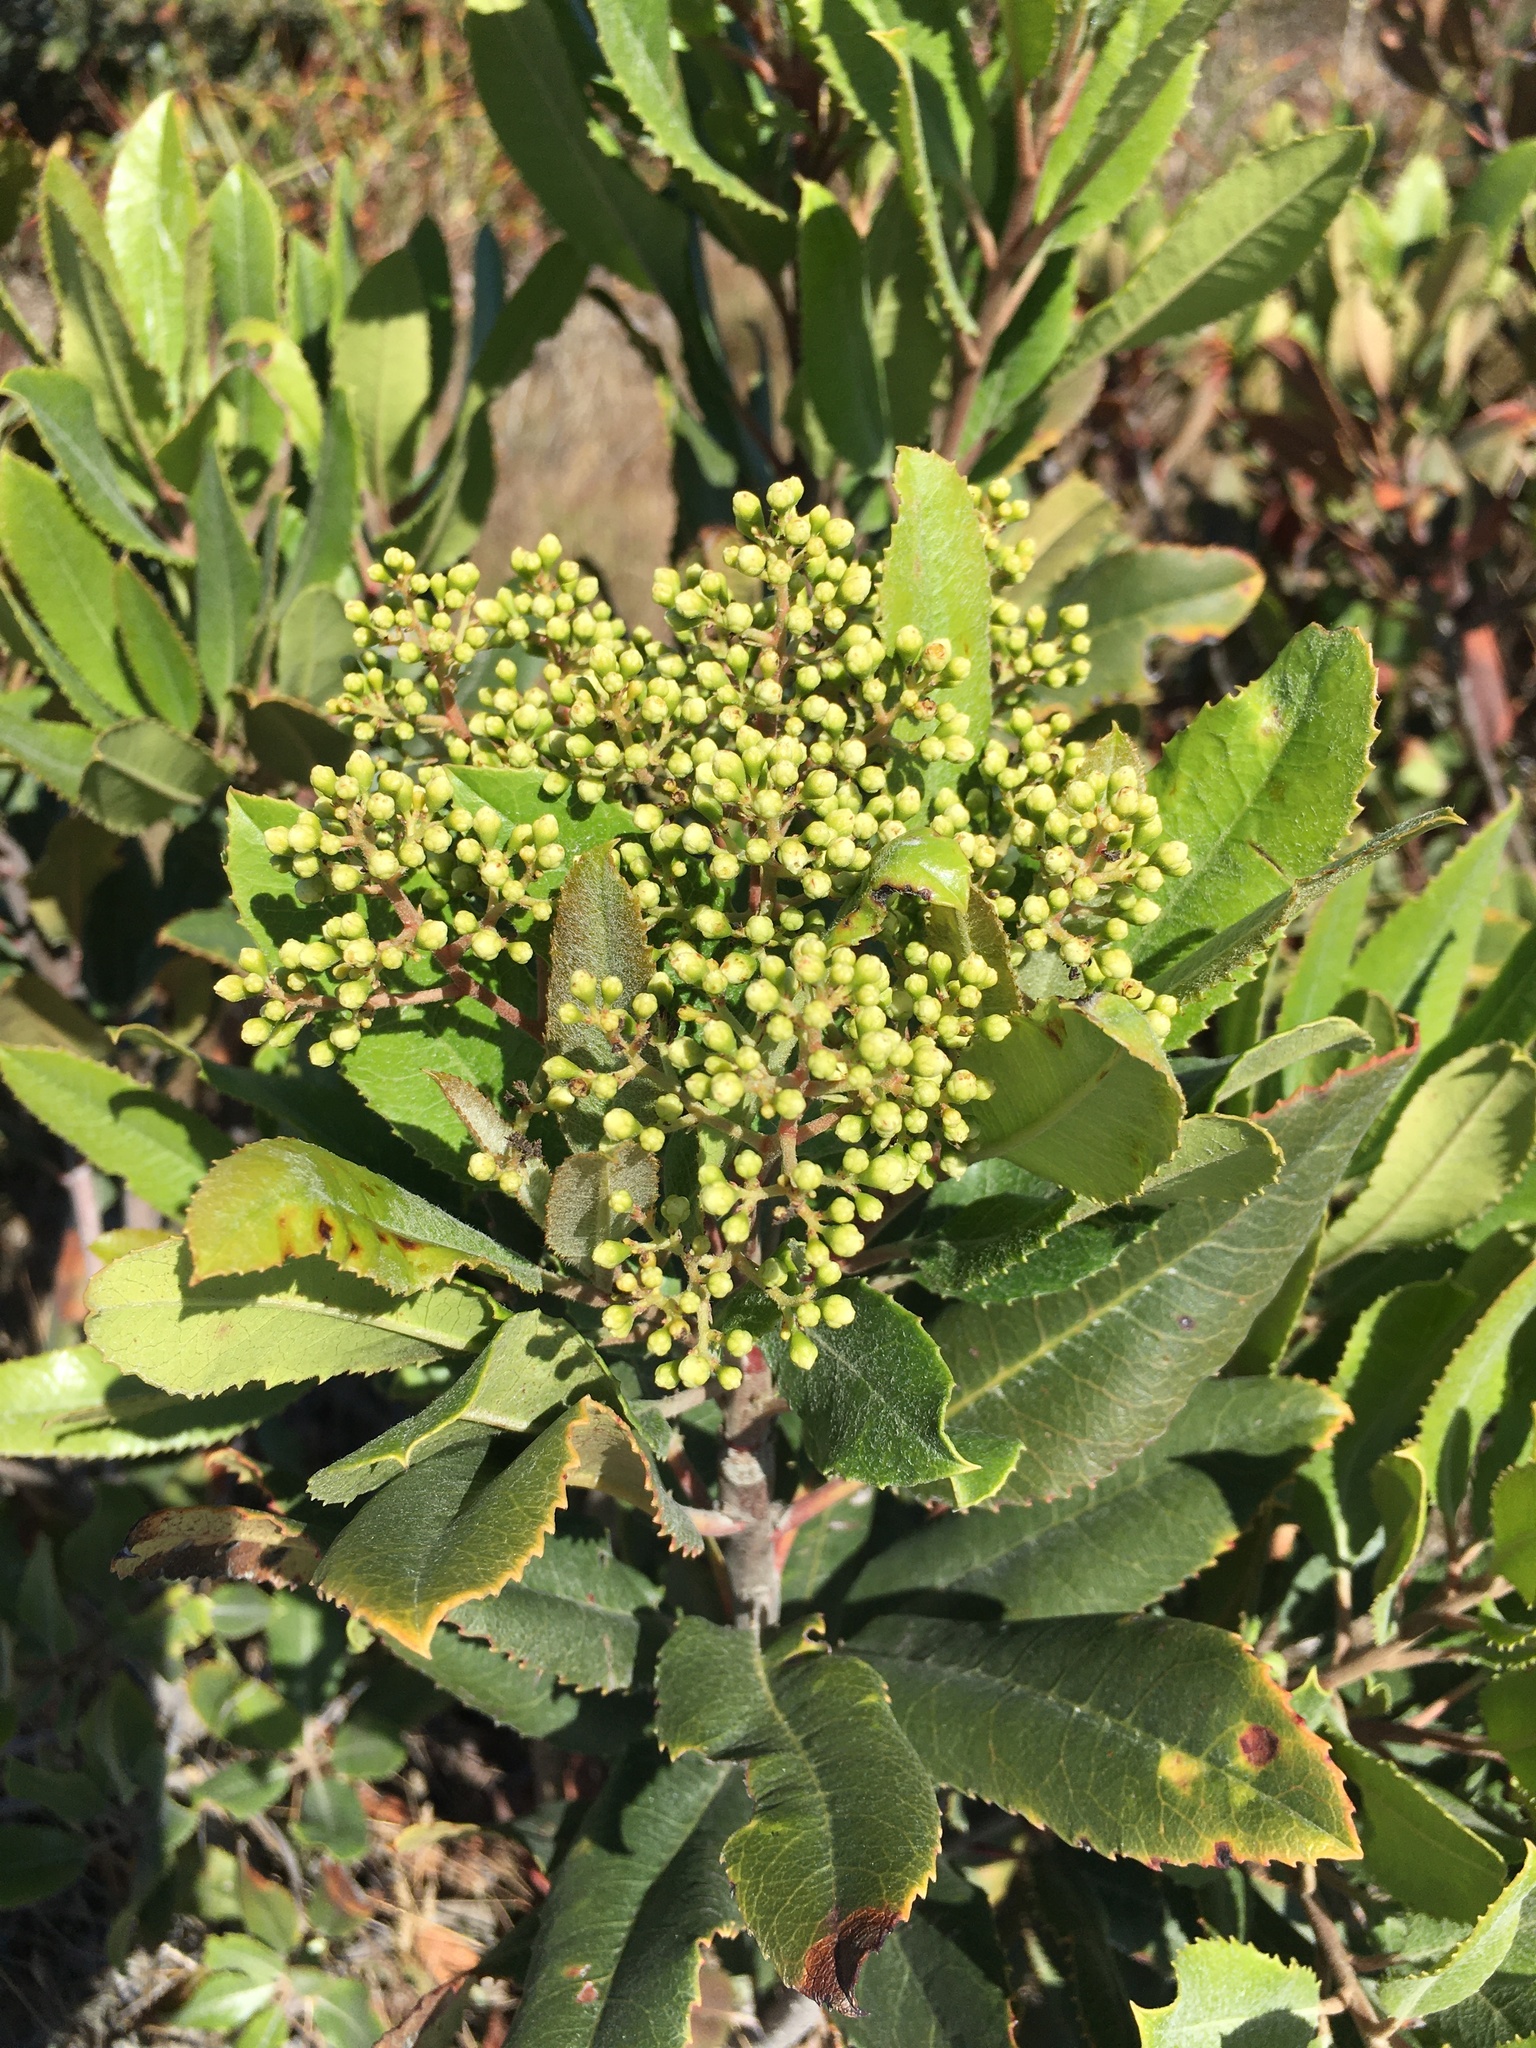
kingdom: Plantae
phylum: Tracheophyta
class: Magnoliopsida
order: Rosales
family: Rosaceae
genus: Heteromeles
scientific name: Heteromeles arbutifolia
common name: California-holly
